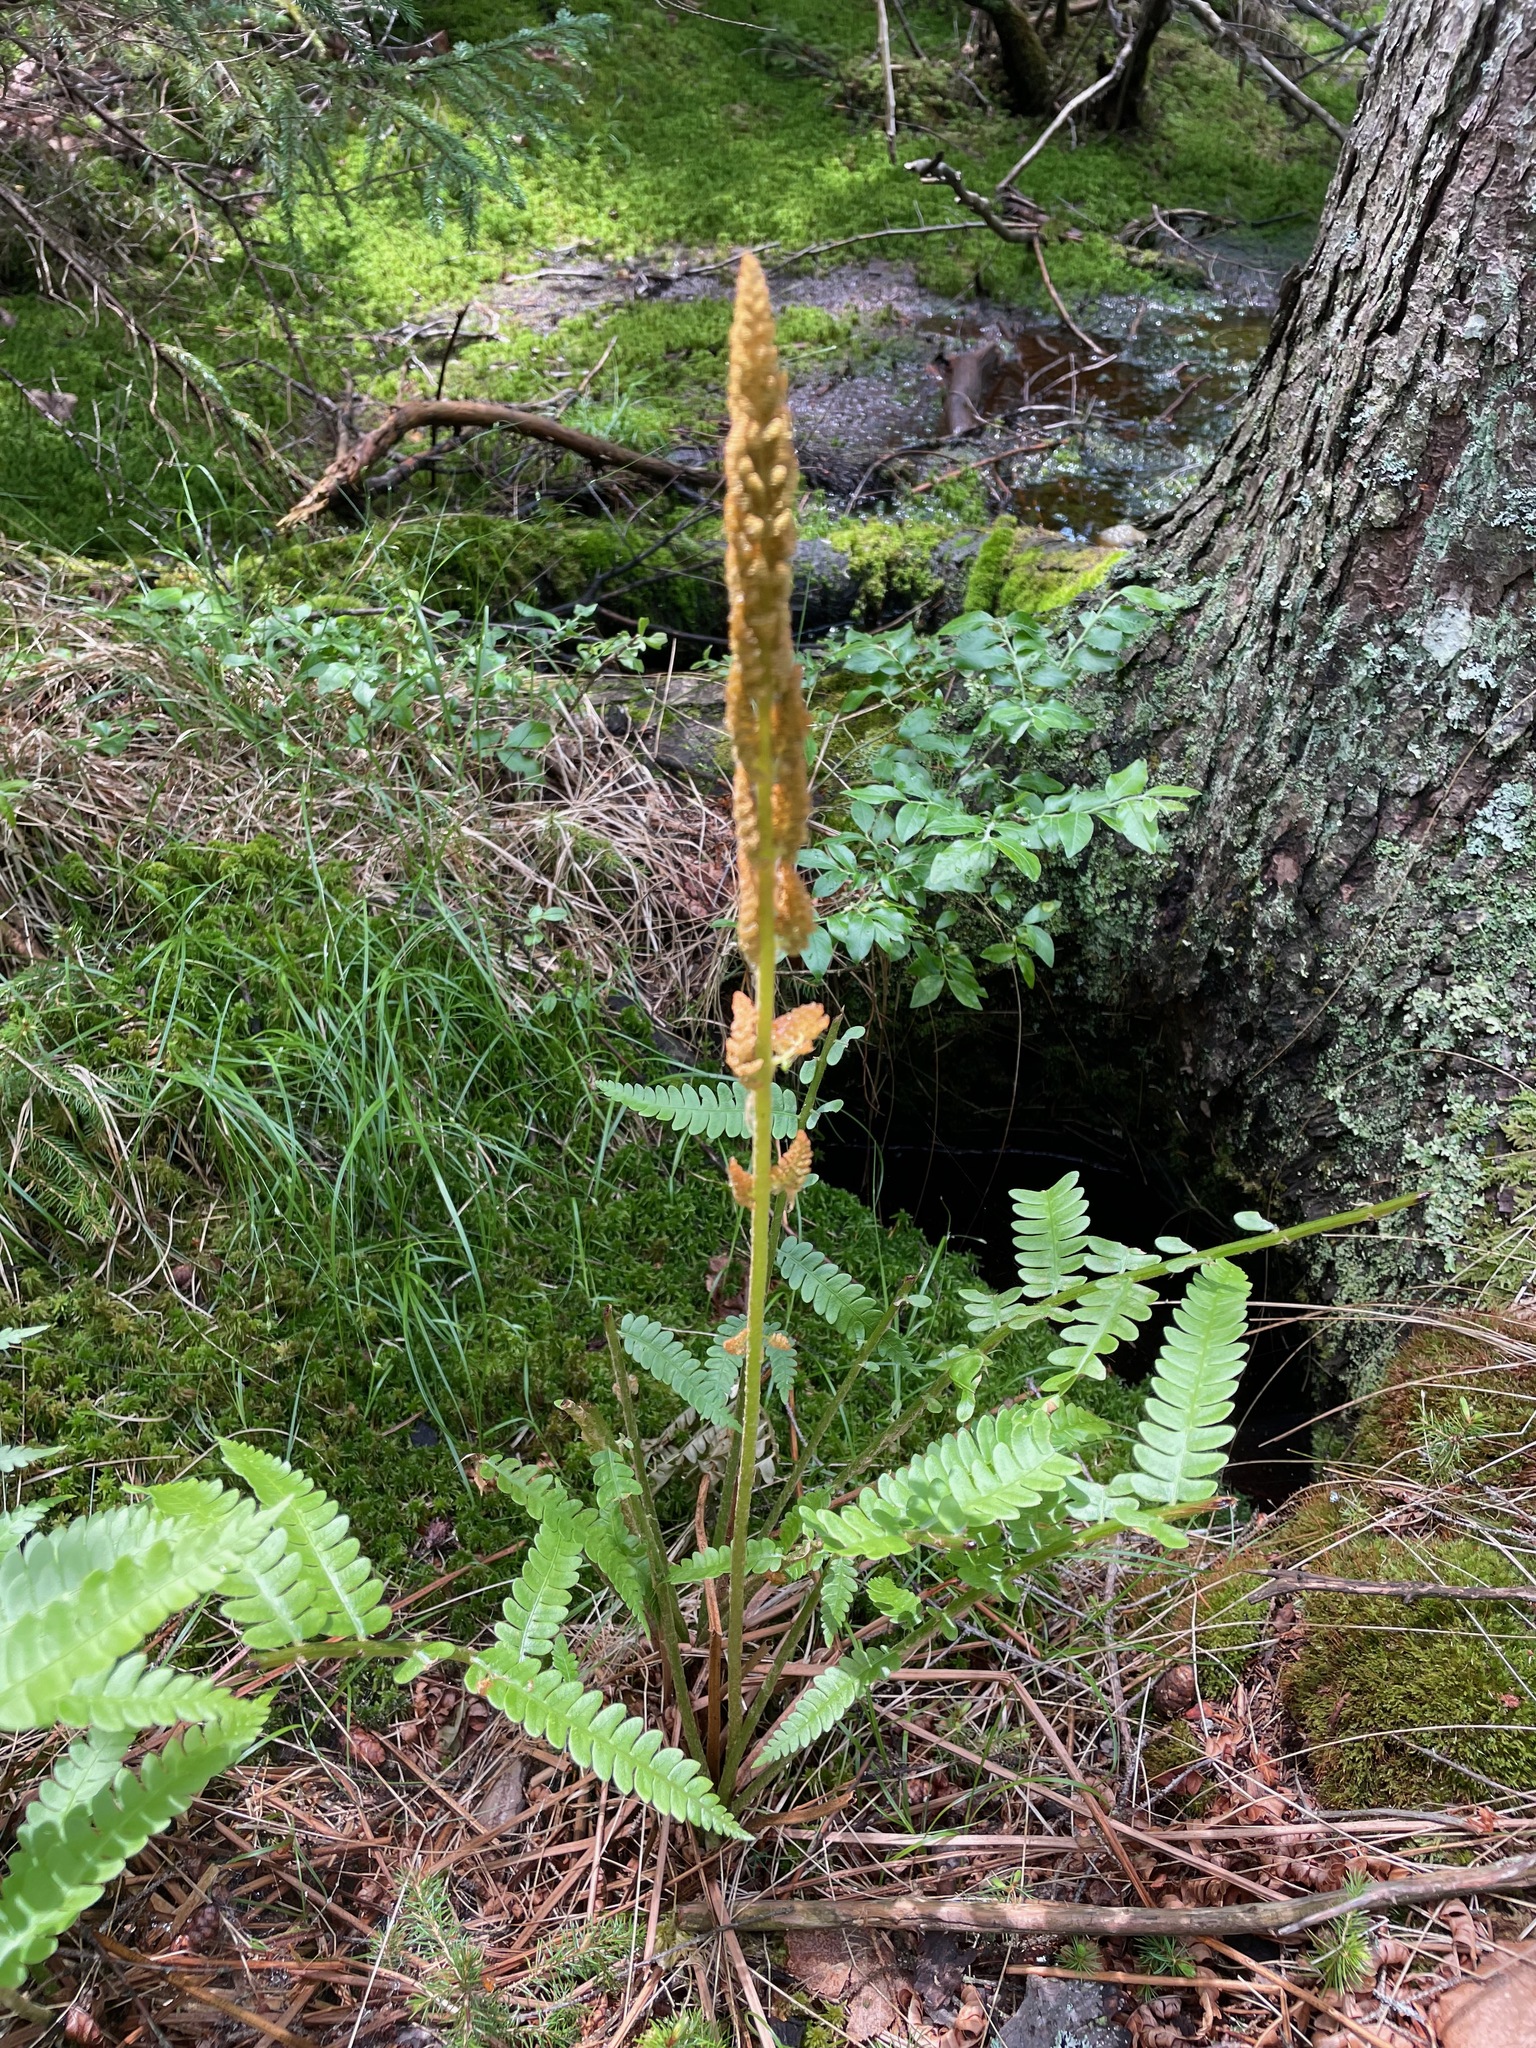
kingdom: Plantae
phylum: Tracheophyta
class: Polypodiopsida
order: Osmundales
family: Osmundaceae
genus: Osmundastrum
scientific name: Osmundastrum cinnamomeum
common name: Cinnamon fern
